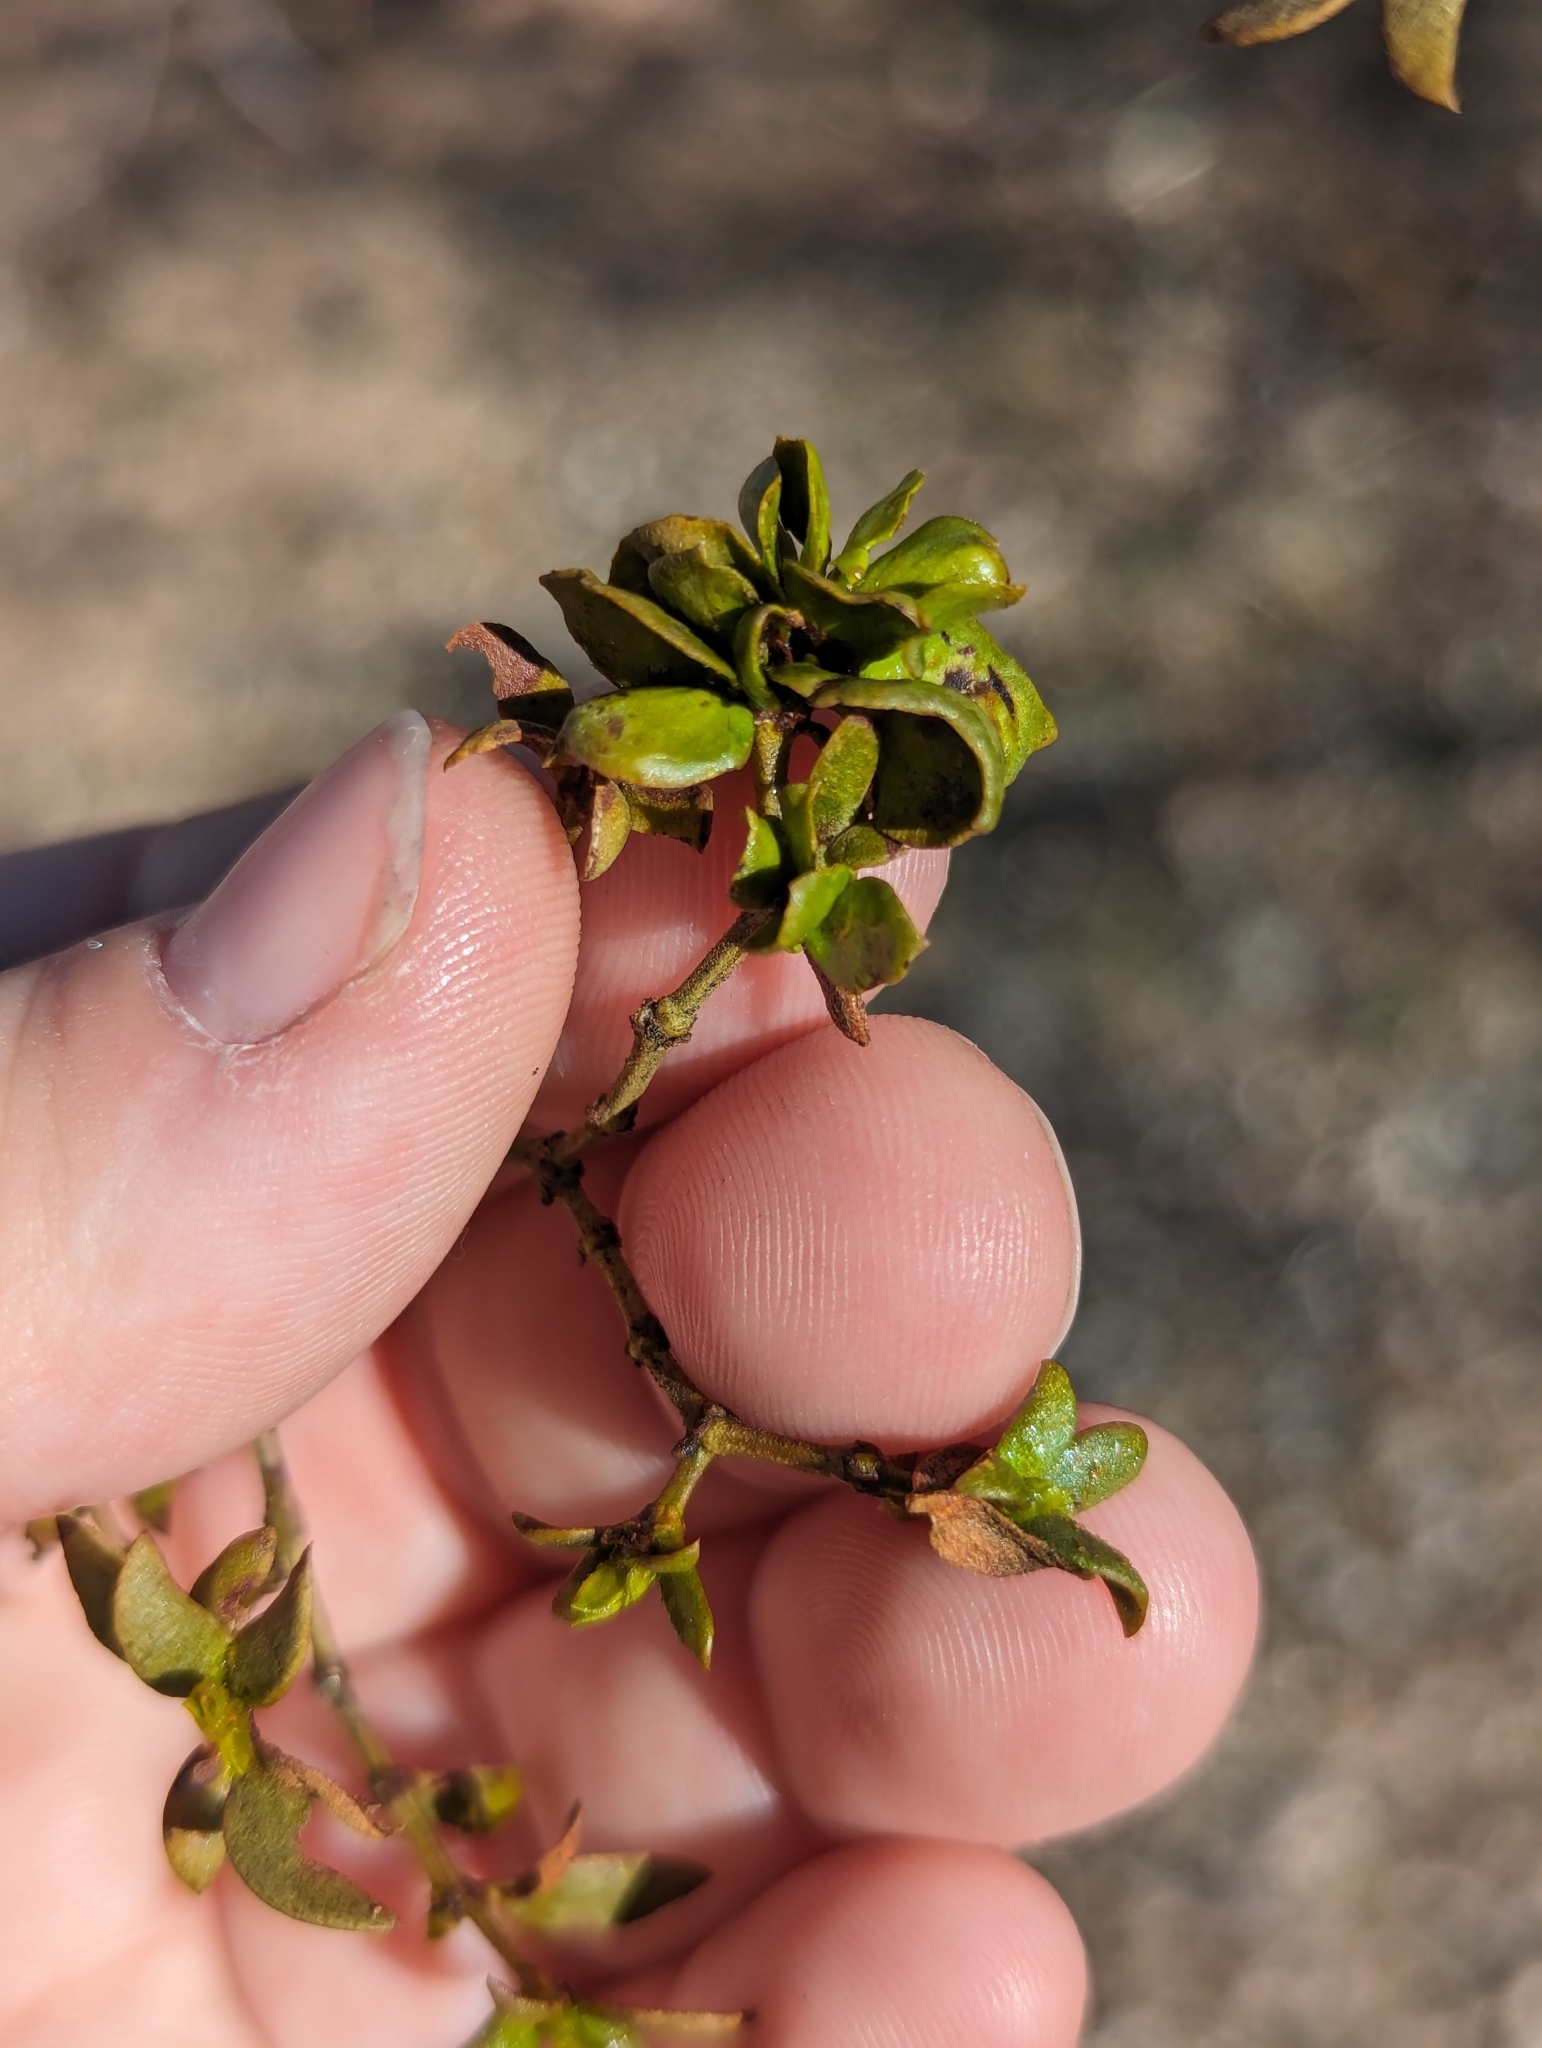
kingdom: Animalia
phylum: Arthropoda
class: Insecta
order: Diptera
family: Cecidomyiidae
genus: Contarinia
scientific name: Contarinia
